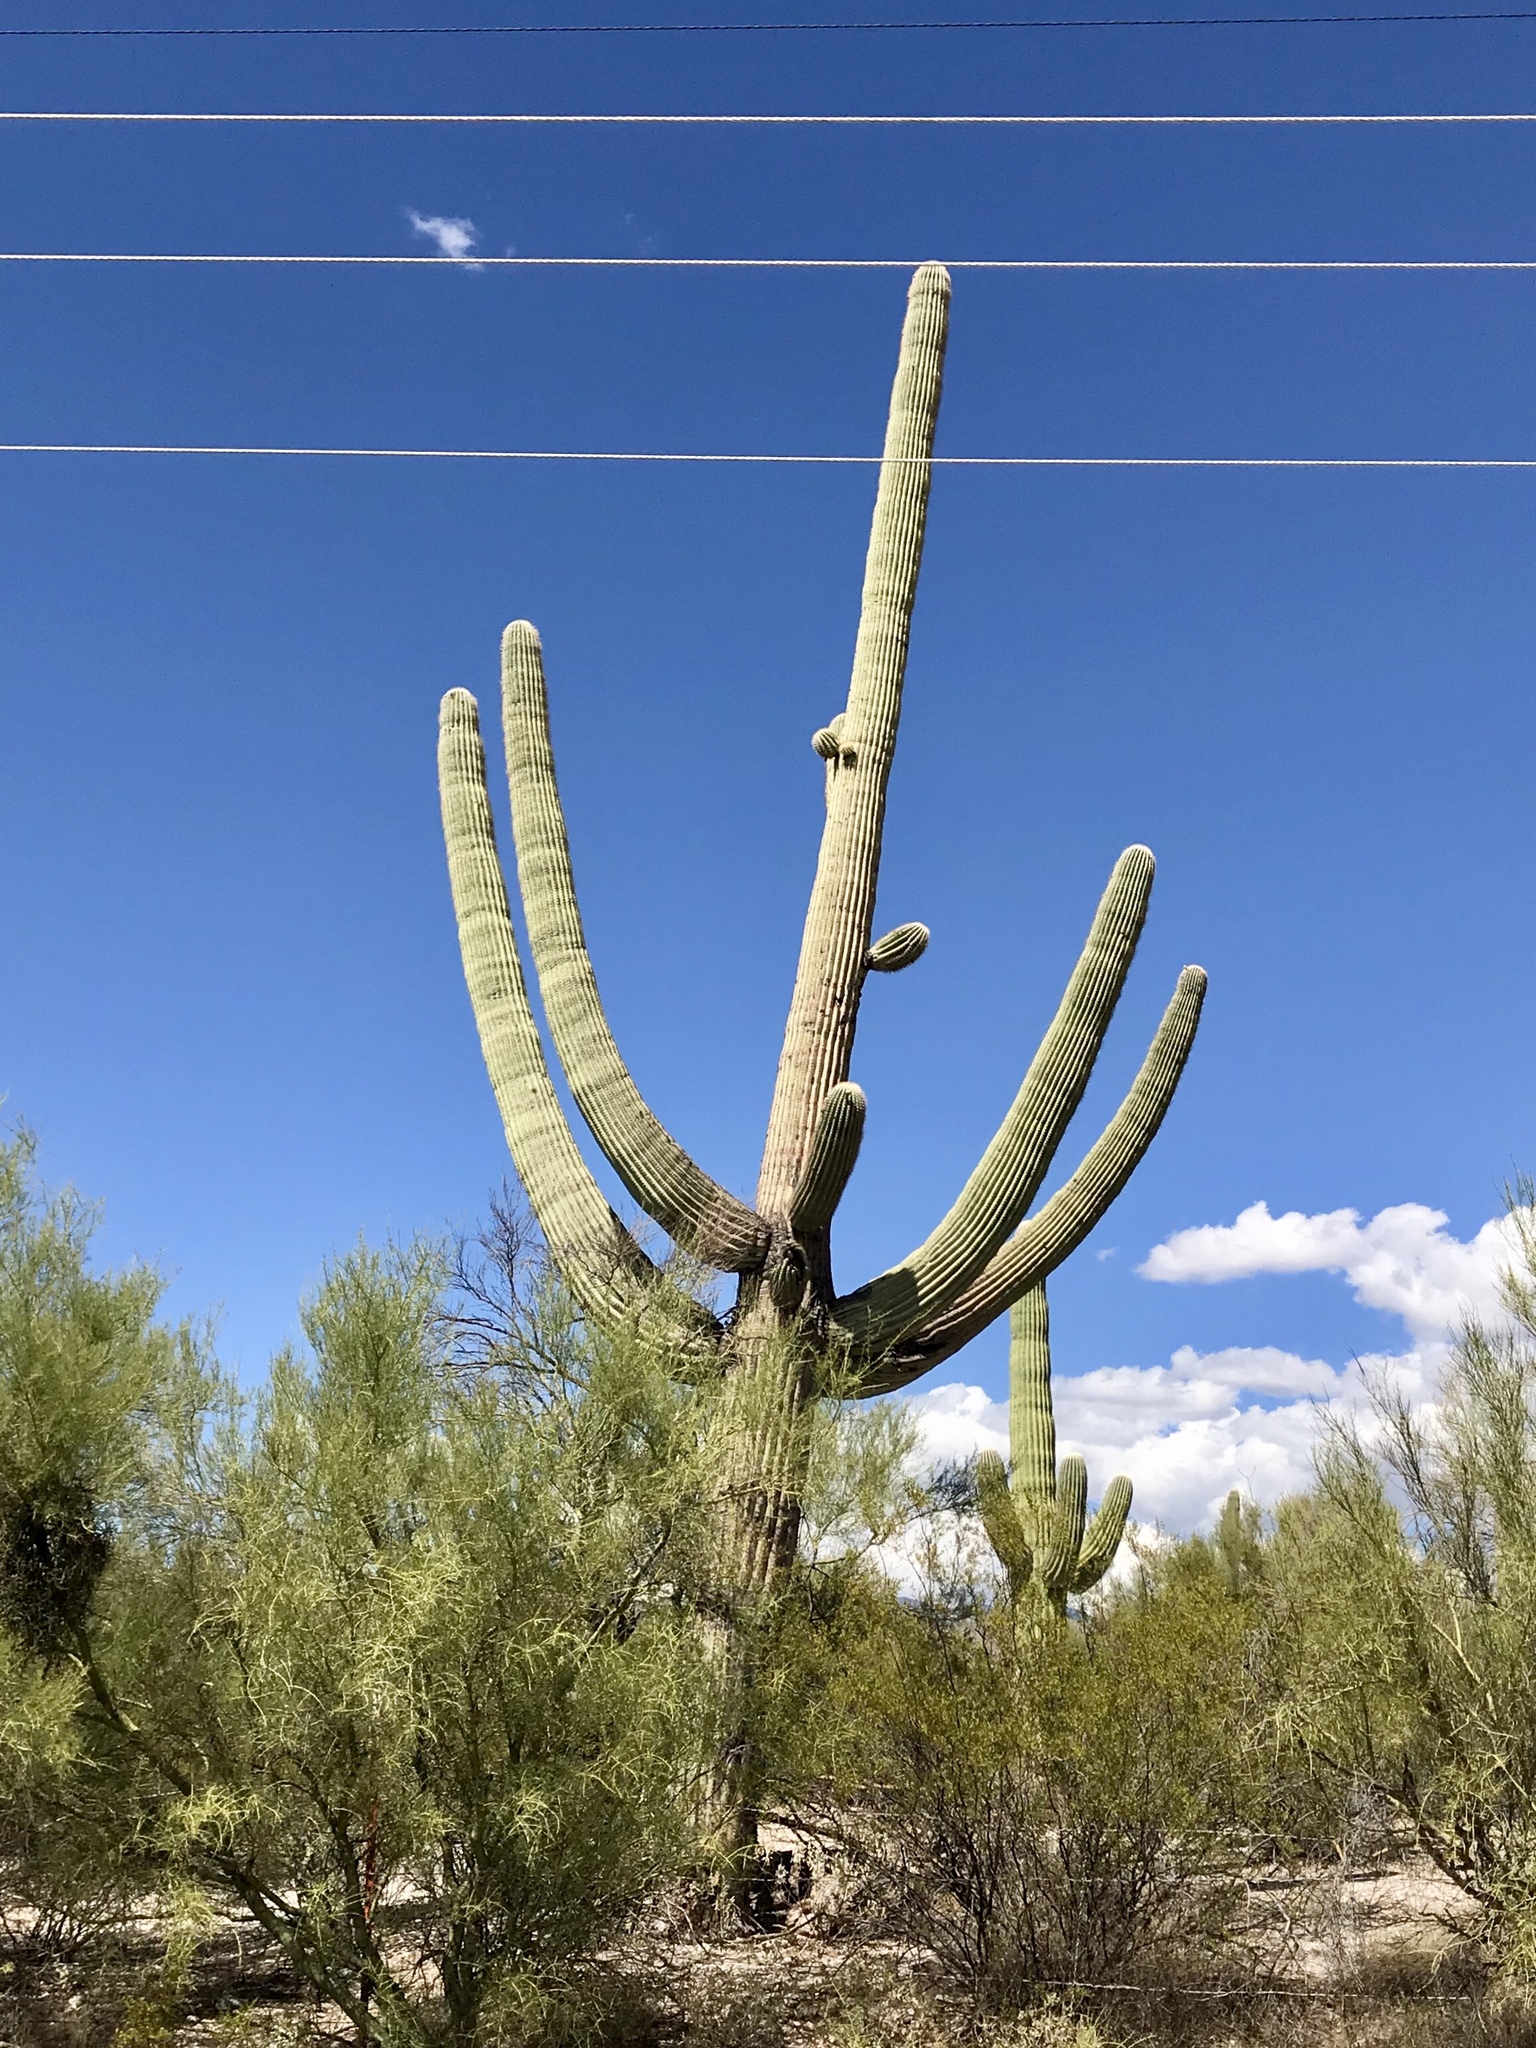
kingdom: Plantae
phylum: Tracheophyta
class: Magnoliopsida
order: Caryophyllales
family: Cactaceae
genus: Carnegiea
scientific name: Carnegiea gigantea
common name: Saguaro
